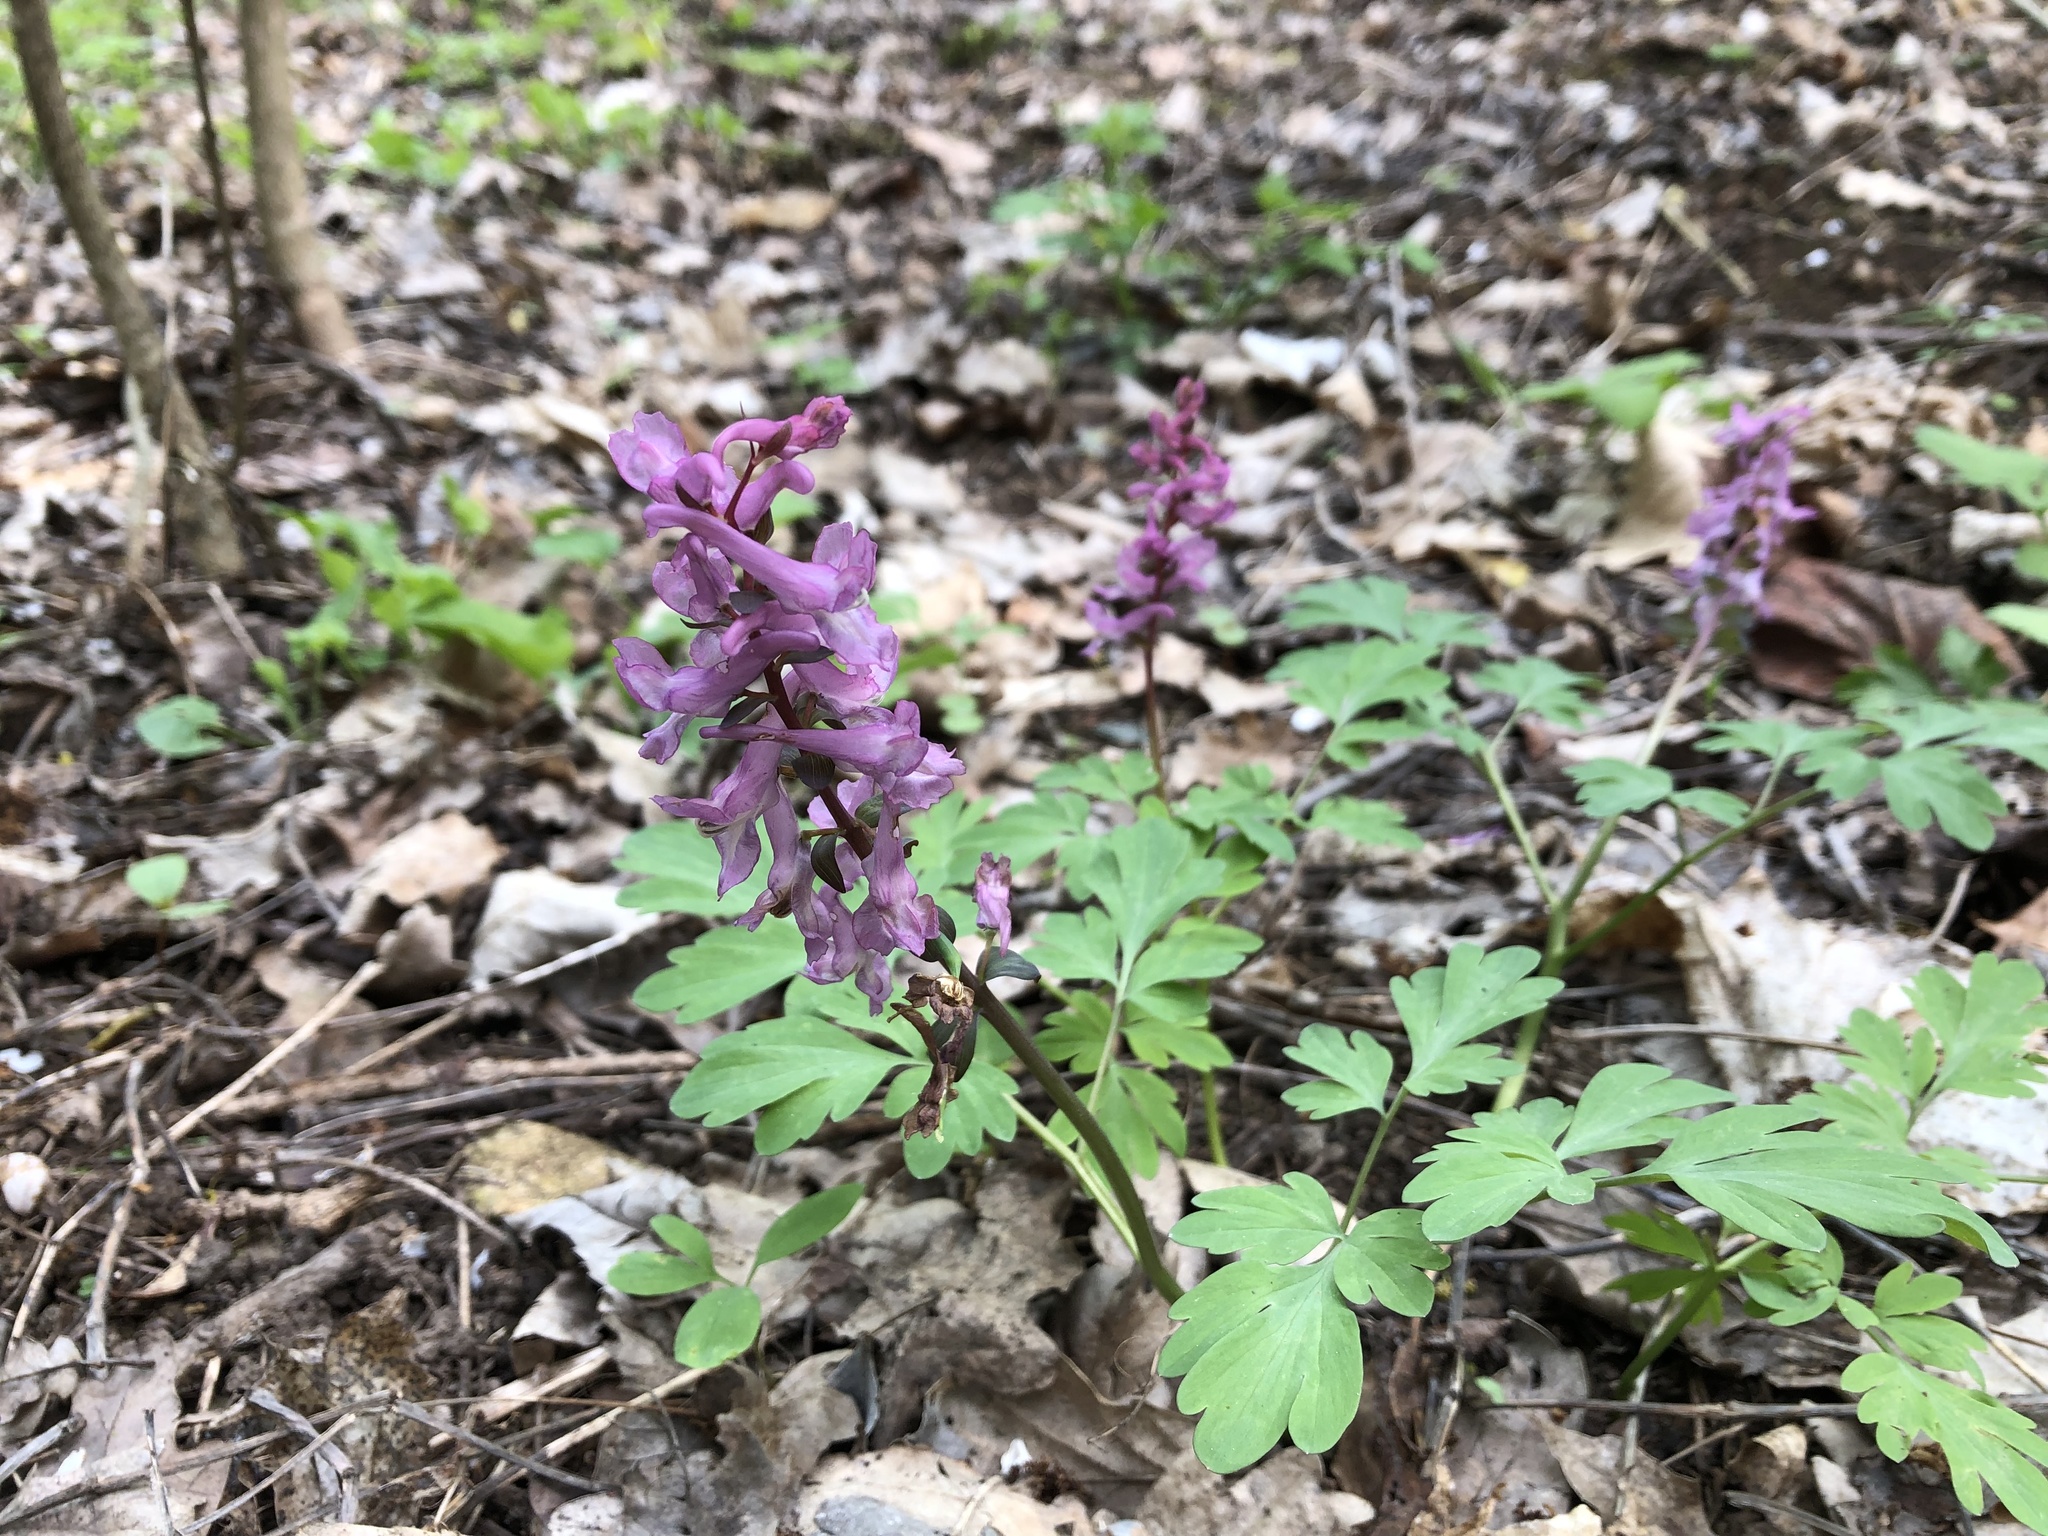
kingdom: Plantae
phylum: Tracheophyta
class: Magnoliopsida
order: Ranunculales
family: Papaveraceae
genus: Corydalis
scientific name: Corydalis cava
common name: Hollowroot
